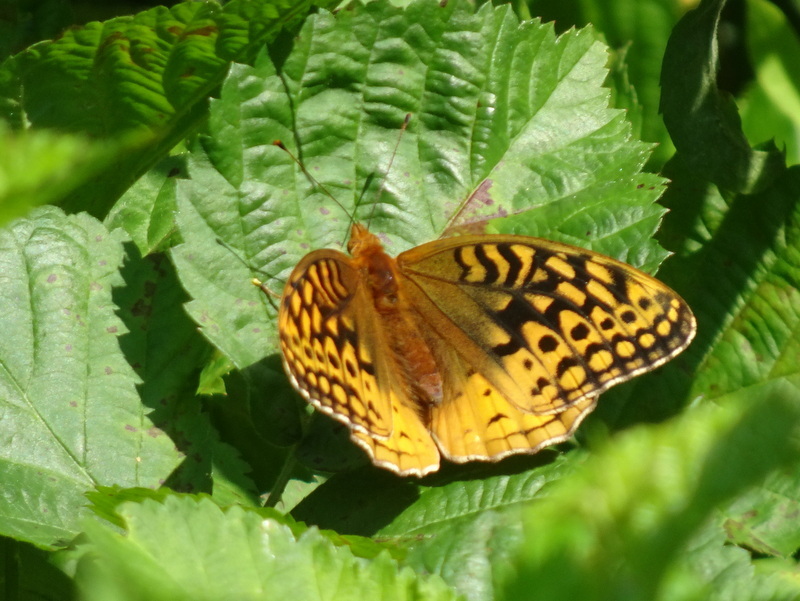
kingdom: Animalia
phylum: Arthropoda
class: Insecta
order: Lepidoptera
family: Nymphalidae
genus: Speyeria
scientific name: Speyeria cybele
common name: Great spangled fritillary
